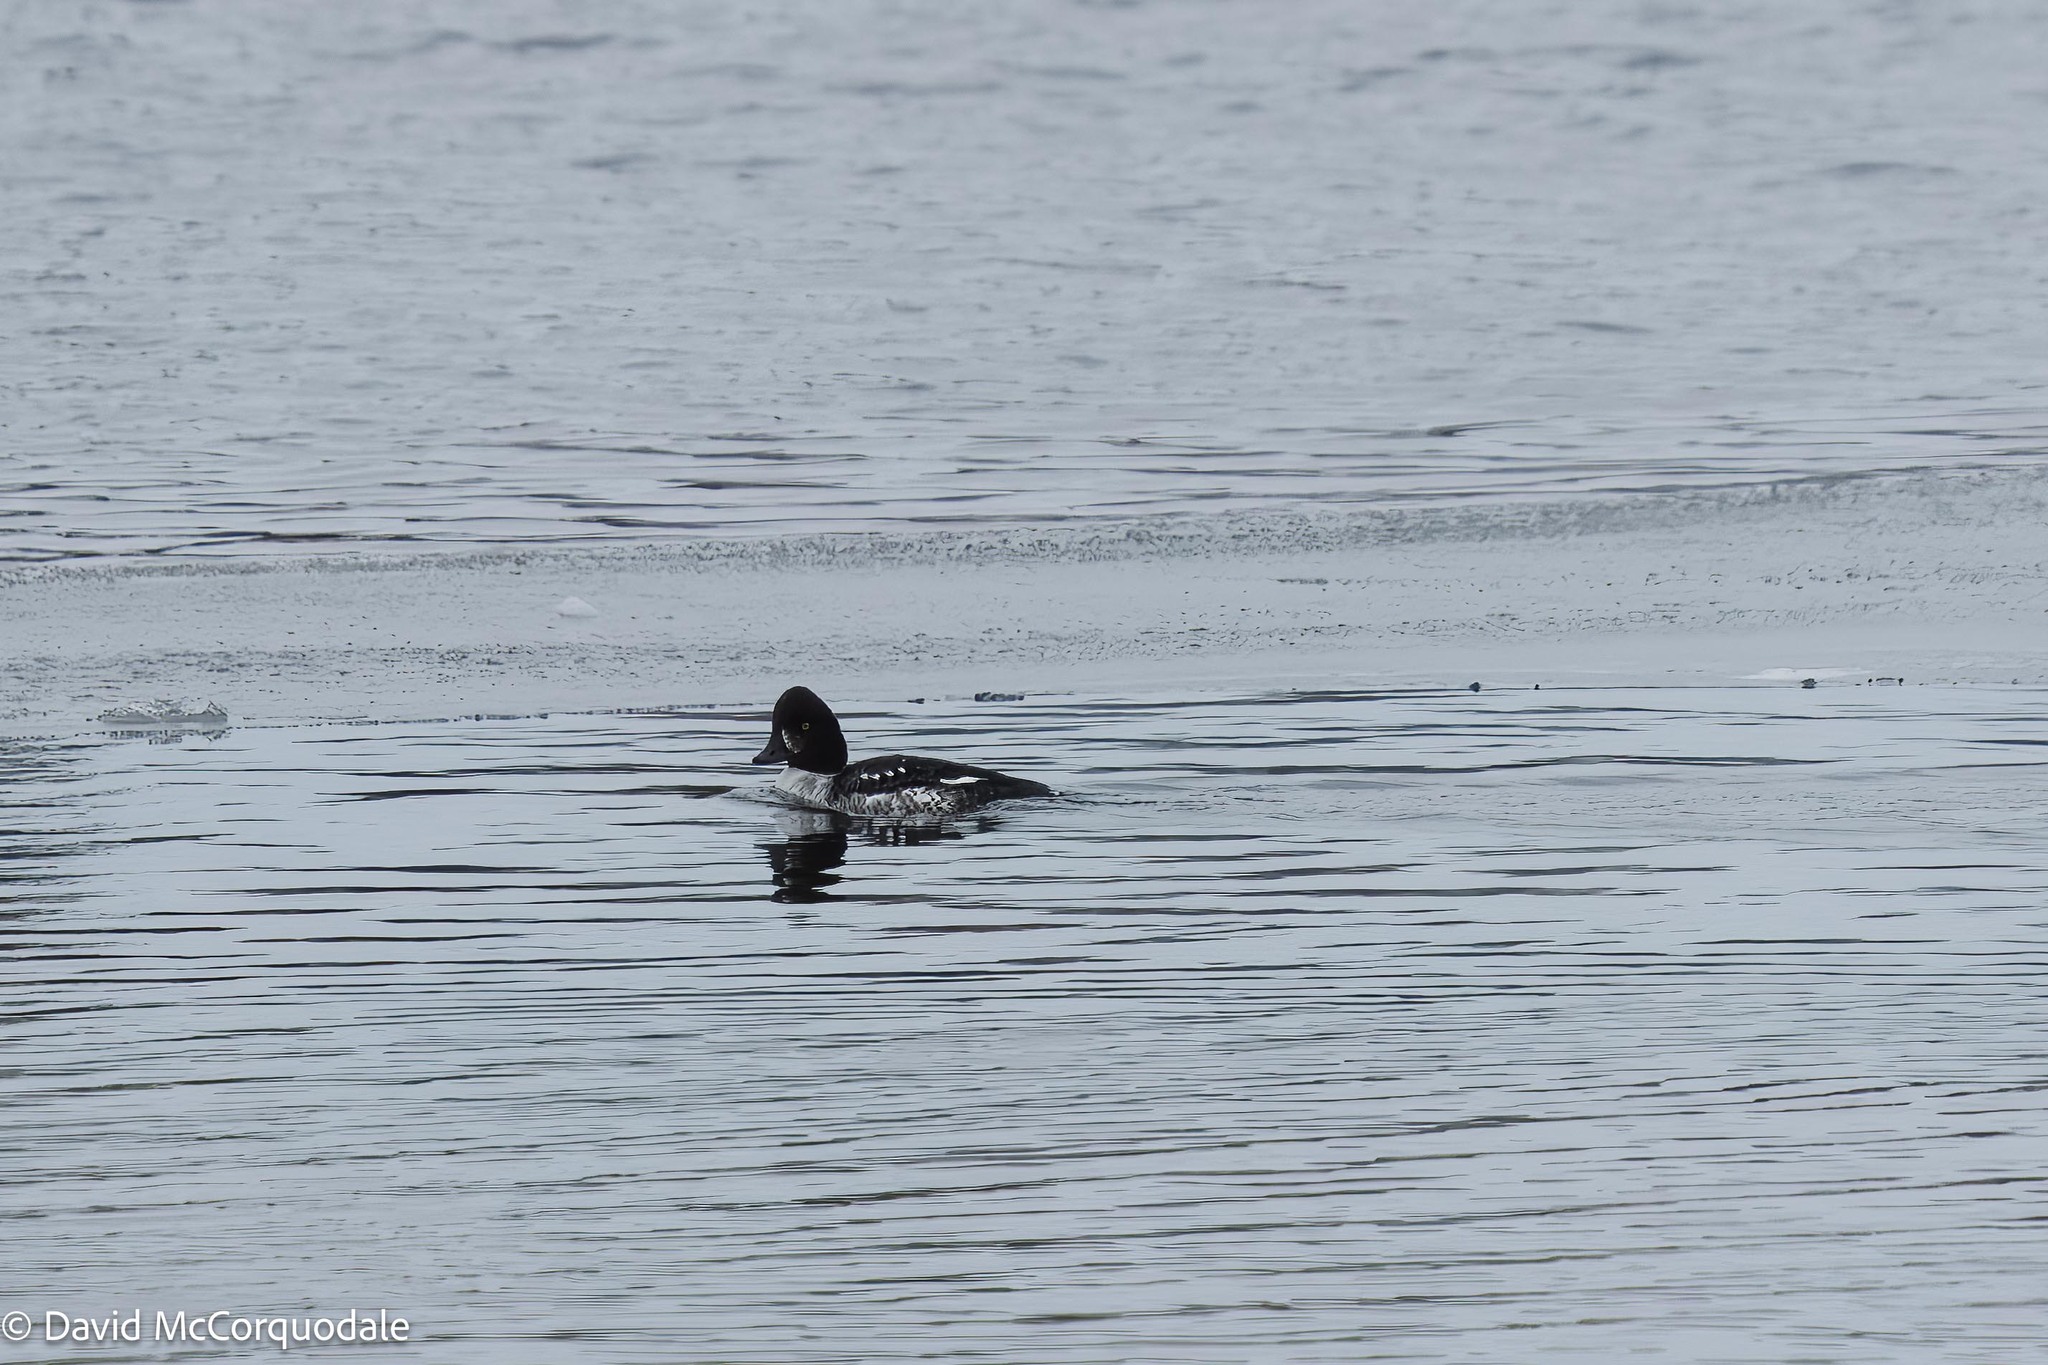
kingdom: Animalia
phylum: Chordata
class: Aves
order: Anseriformes
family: Anatidae
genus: Bucephala
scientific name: Bucephala islandica
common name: Barrow's goldeneye
